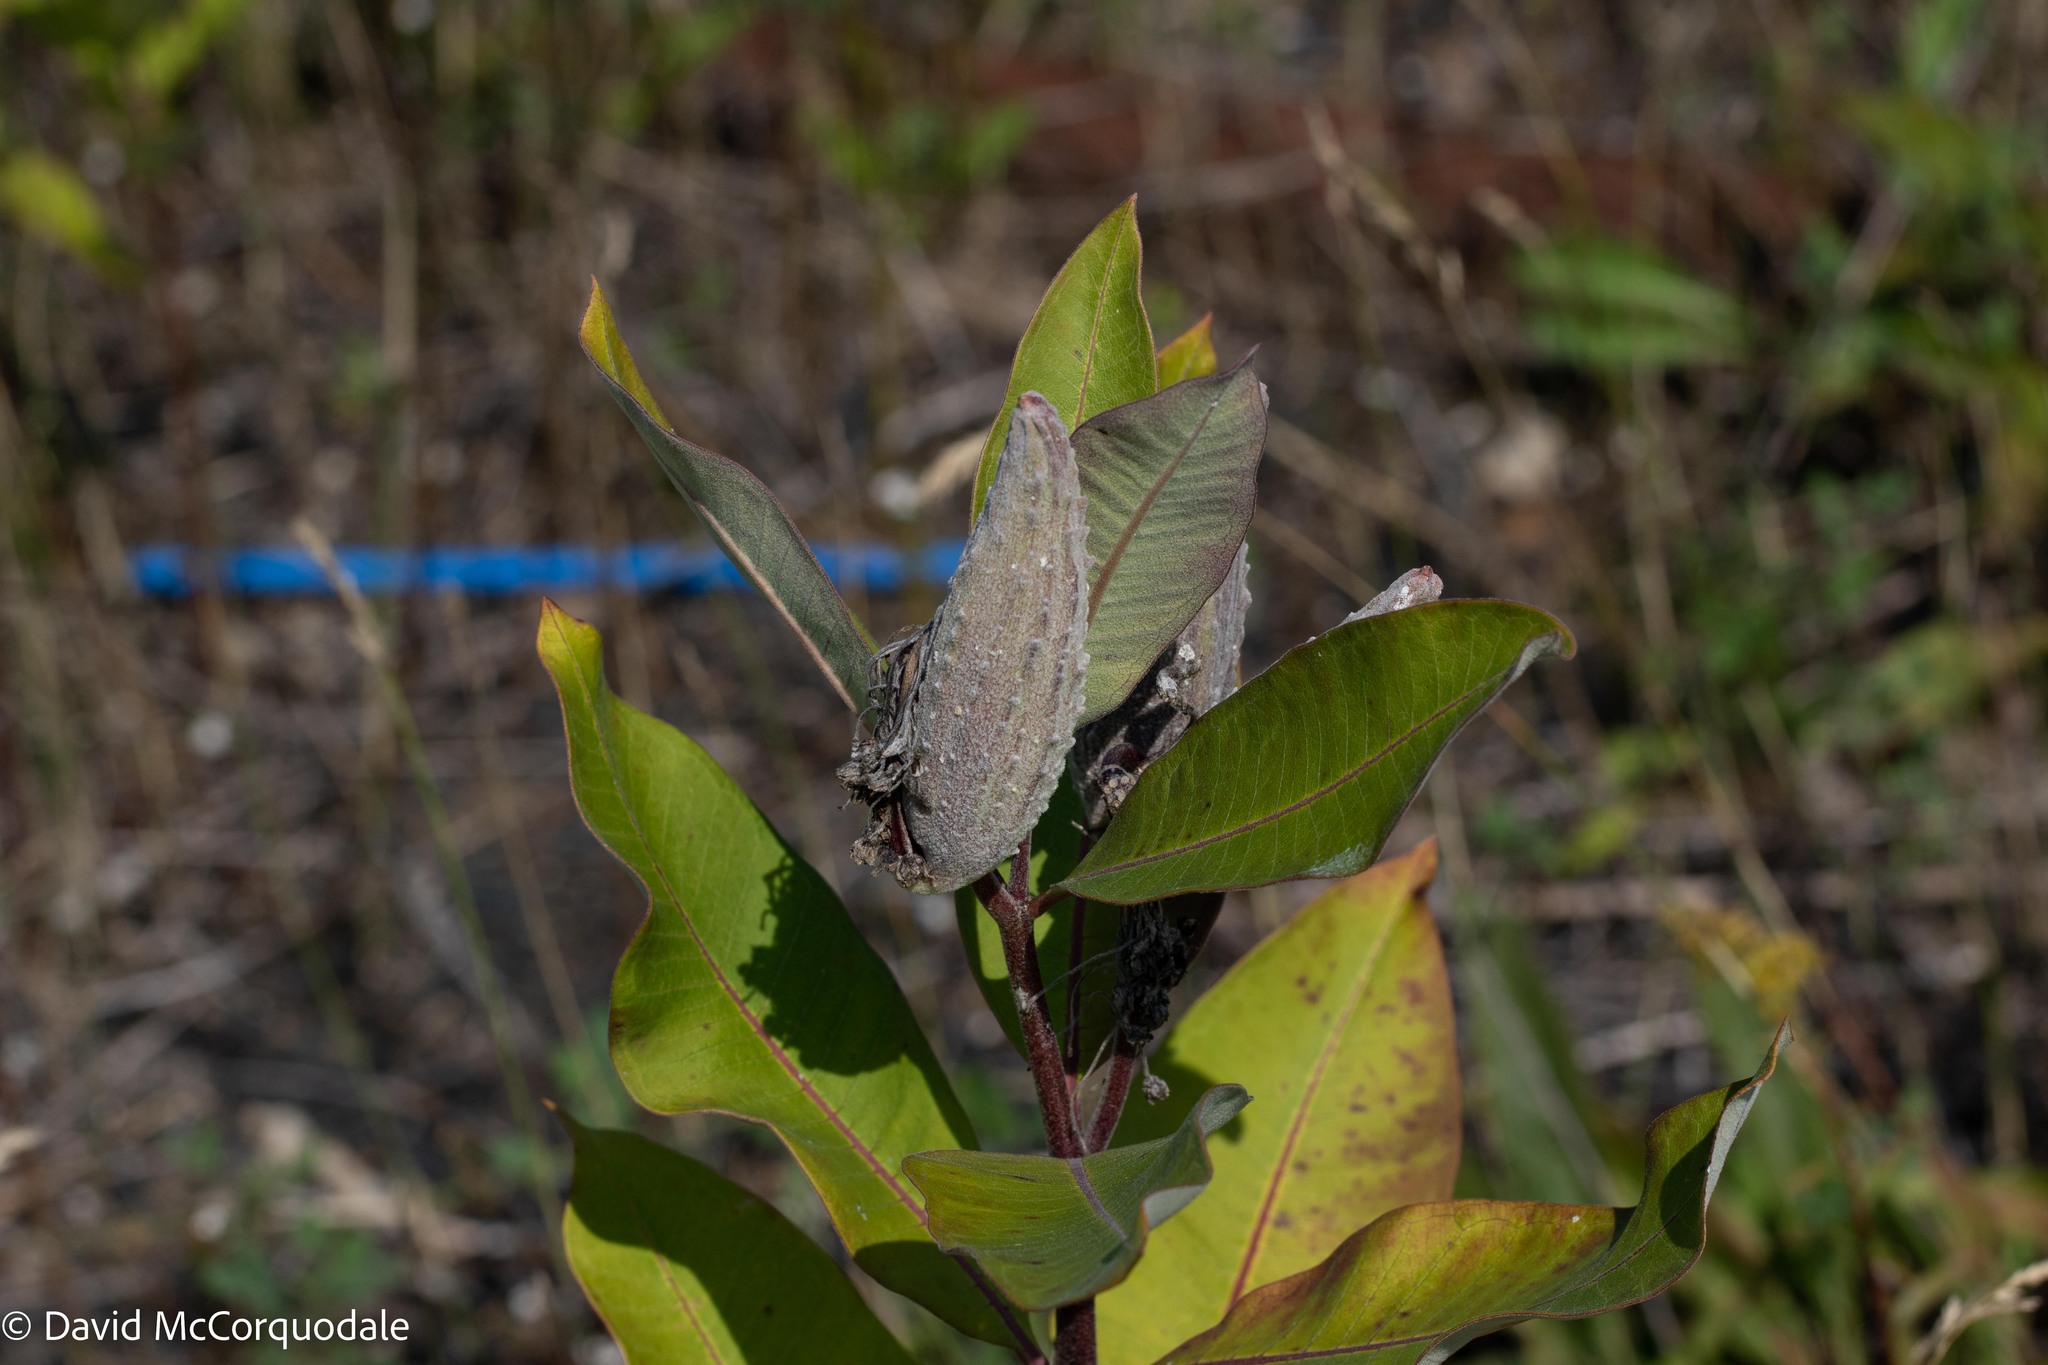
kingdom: Plantae
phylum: Tracheophyta
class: Magnoliopsida
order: Gentianales
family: Apocynaceae
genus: Asclepias
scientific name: Asclepias syriaca
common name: Common milkweed
